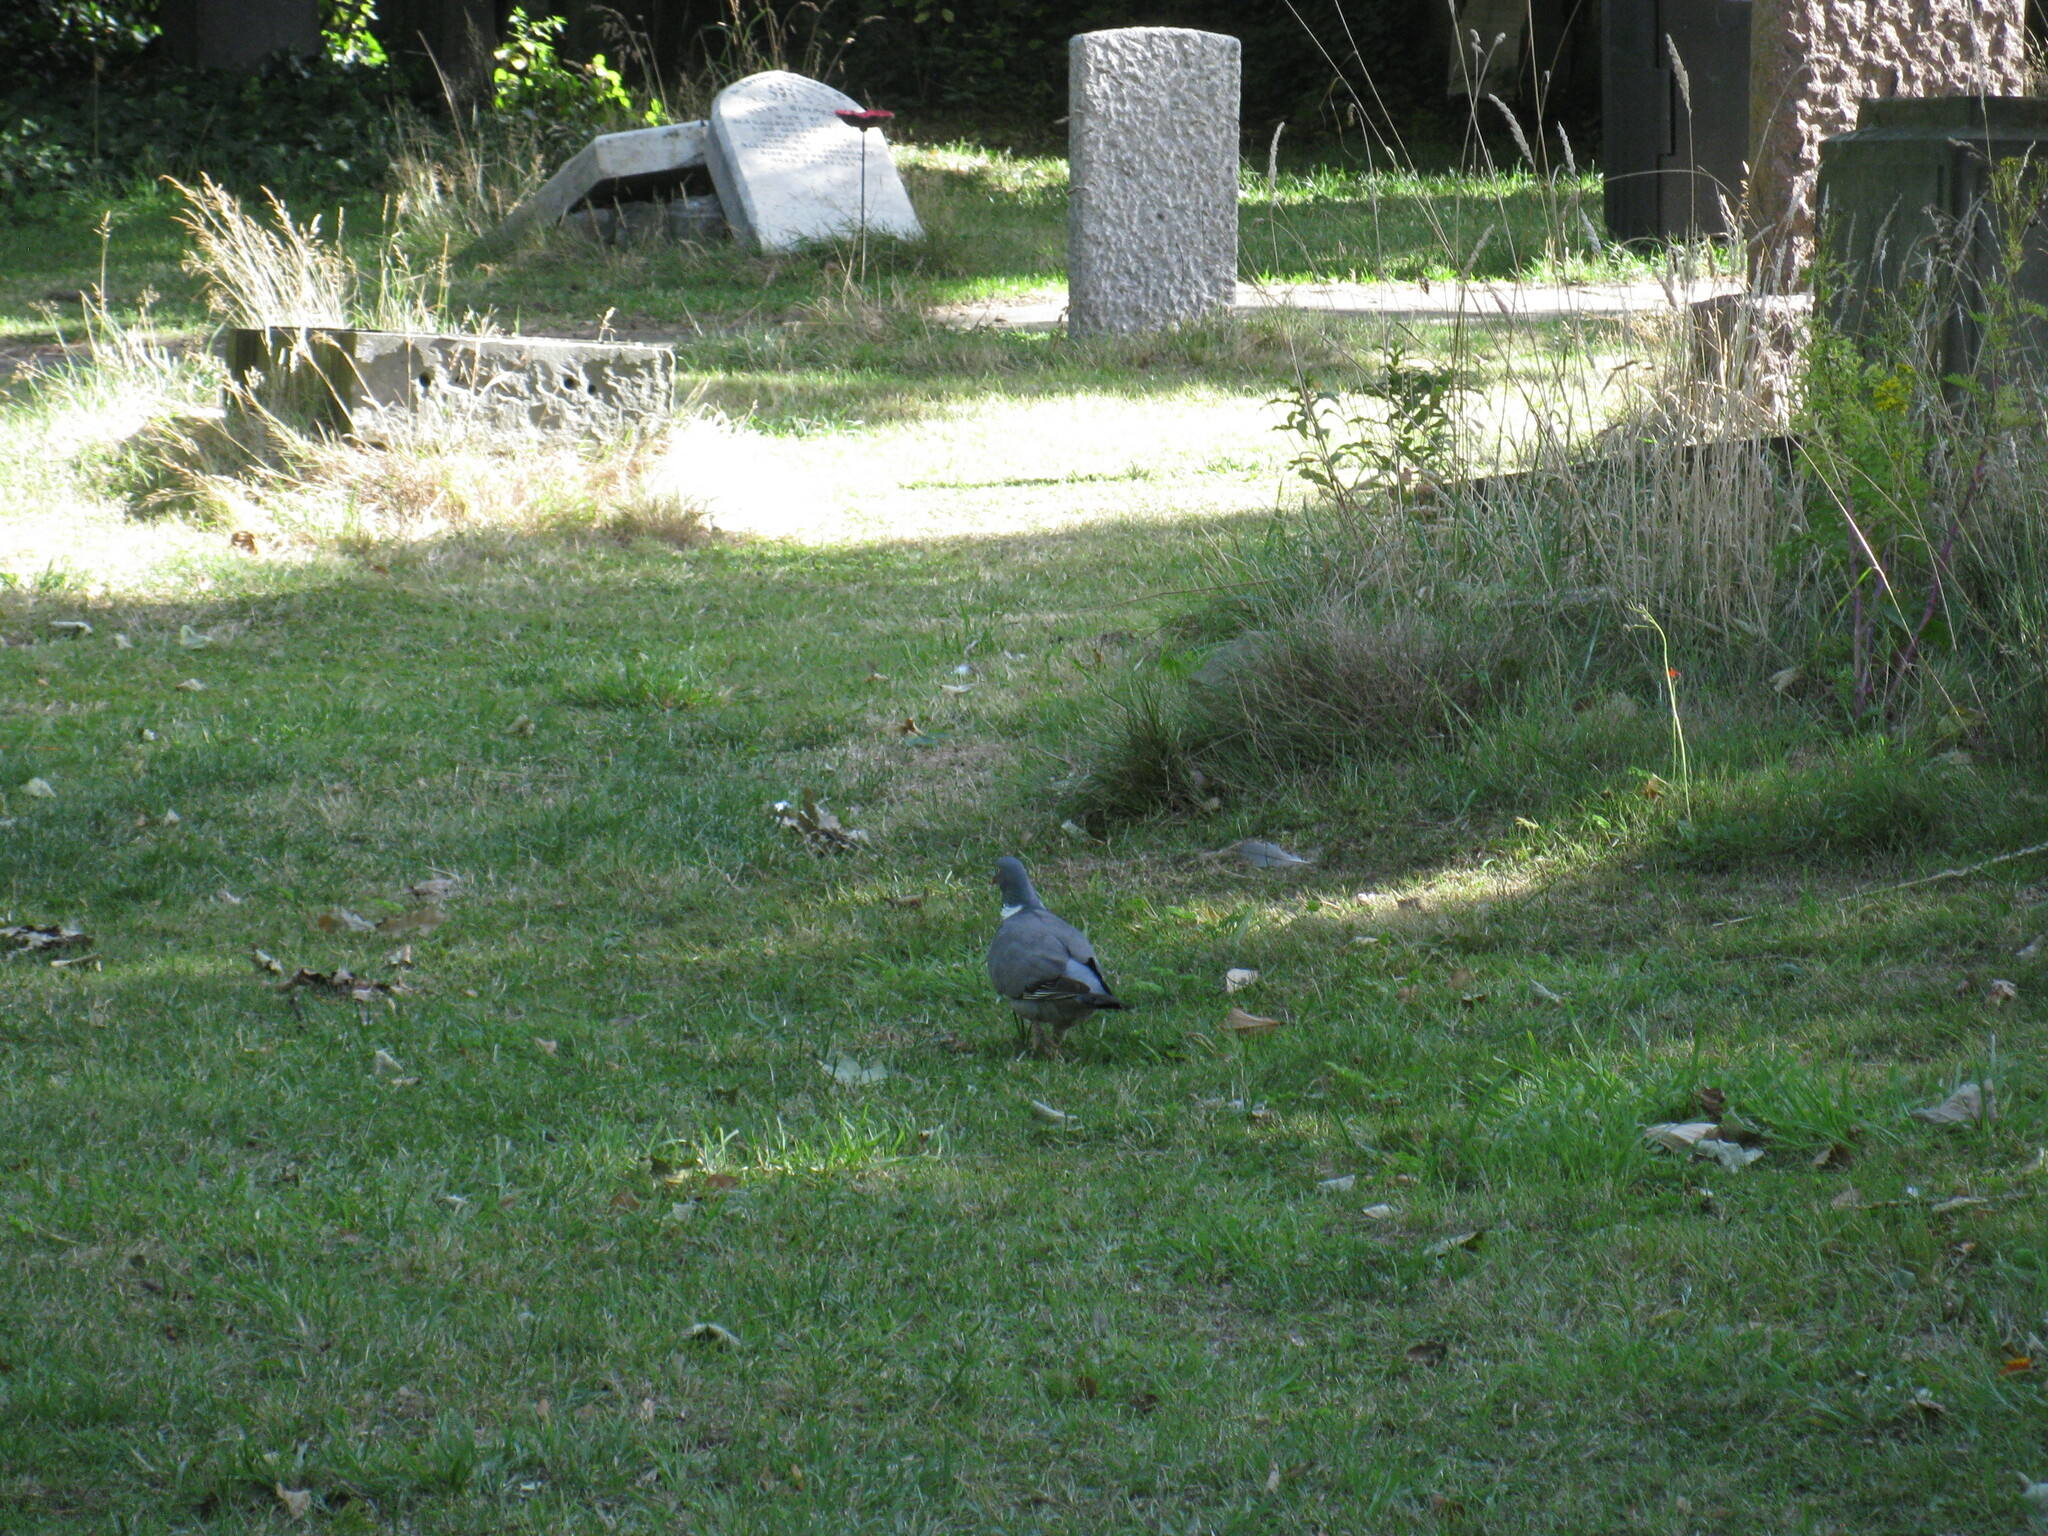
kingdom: Animalia
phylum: Chordata
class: Aves
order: Columbiformes
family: Columbidae
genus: Columba
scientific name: Columba palumbus
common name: Common wood pigeon
